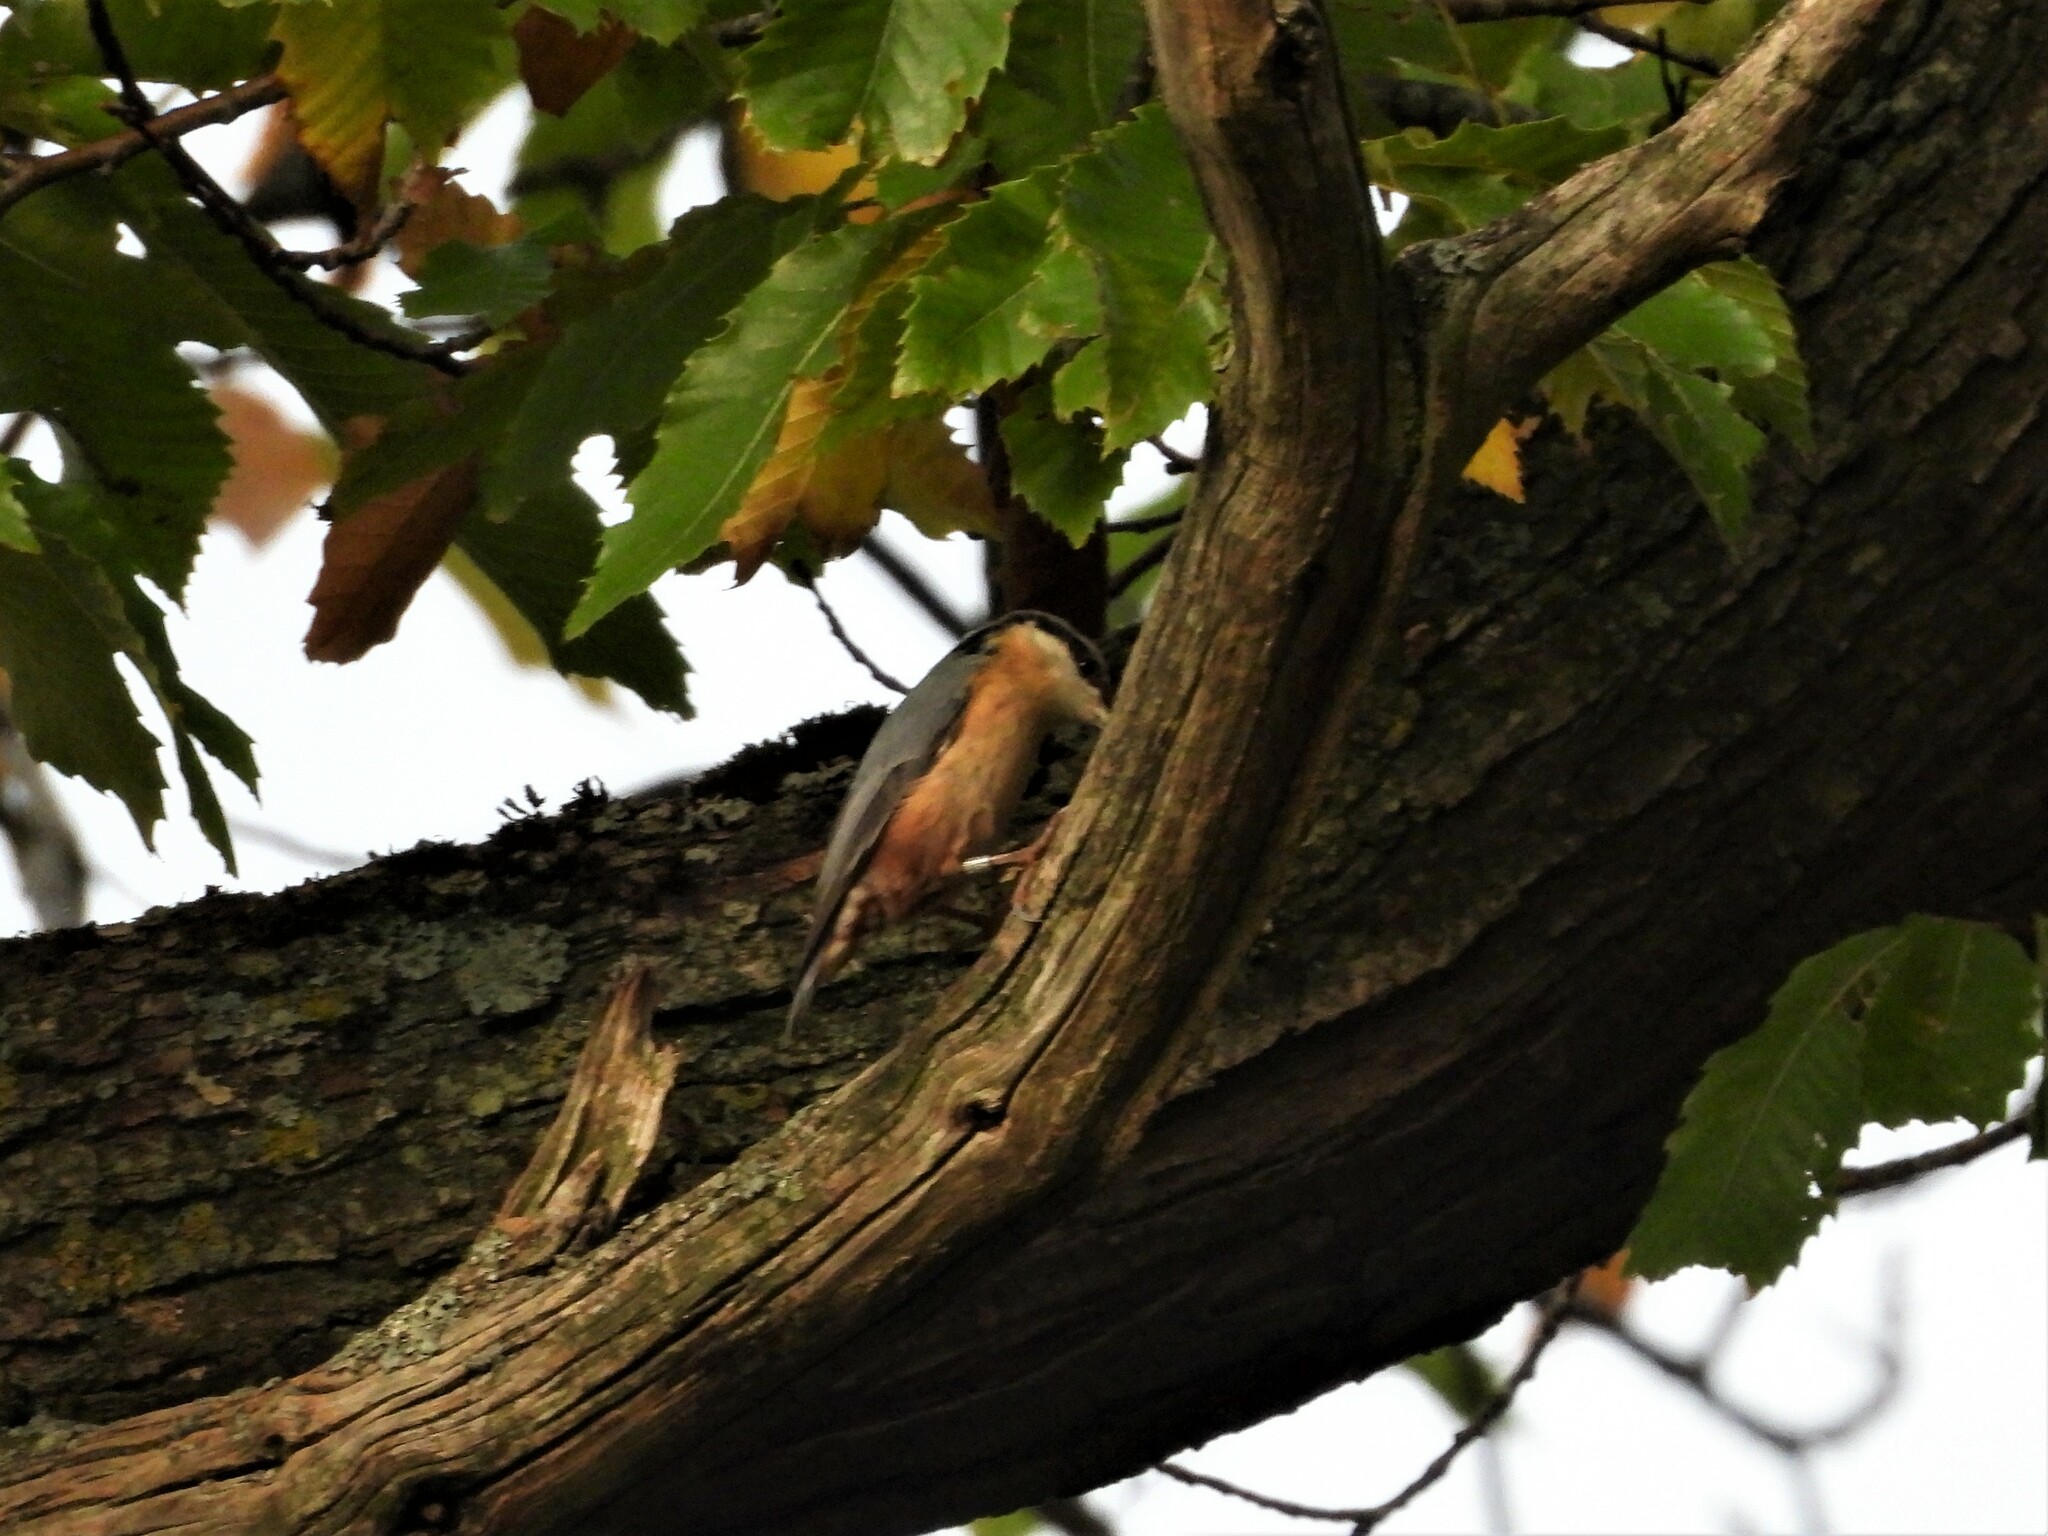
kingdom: Animalia
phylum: Chordata
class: Aves
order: Passeriformes
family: Sittidae
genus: Sitta
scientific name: Sitta europaea
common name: Eurasian nuthatch
